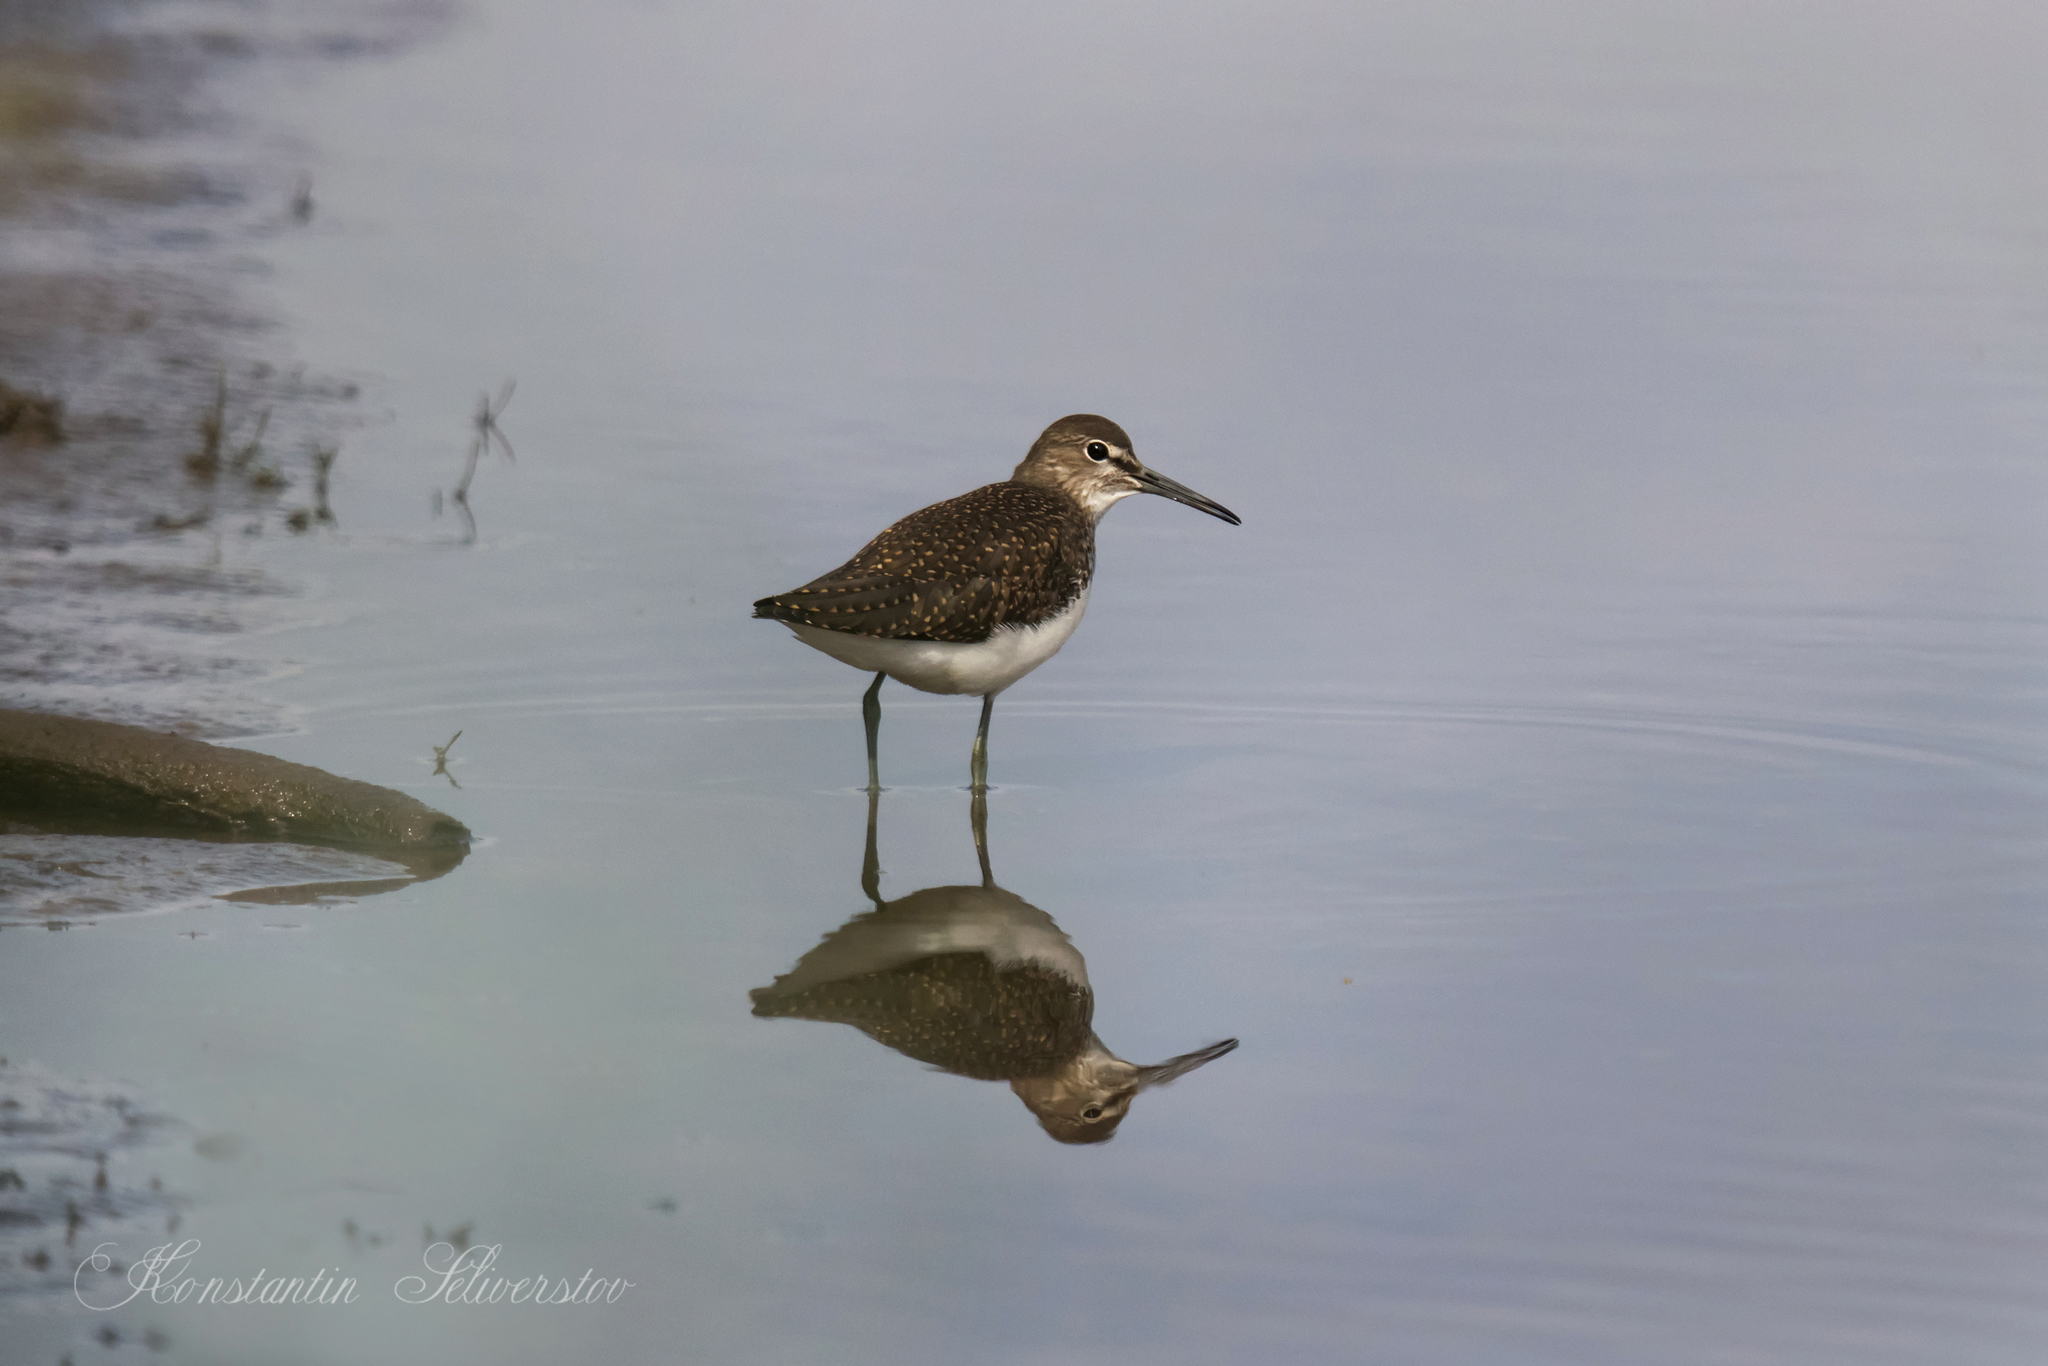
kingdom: Animalia
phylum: Chordata
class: Aves
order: Charadriiformes
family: Scolopacidae
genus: Tringa
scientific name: Tringa ochropus
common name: Green sandpiper
